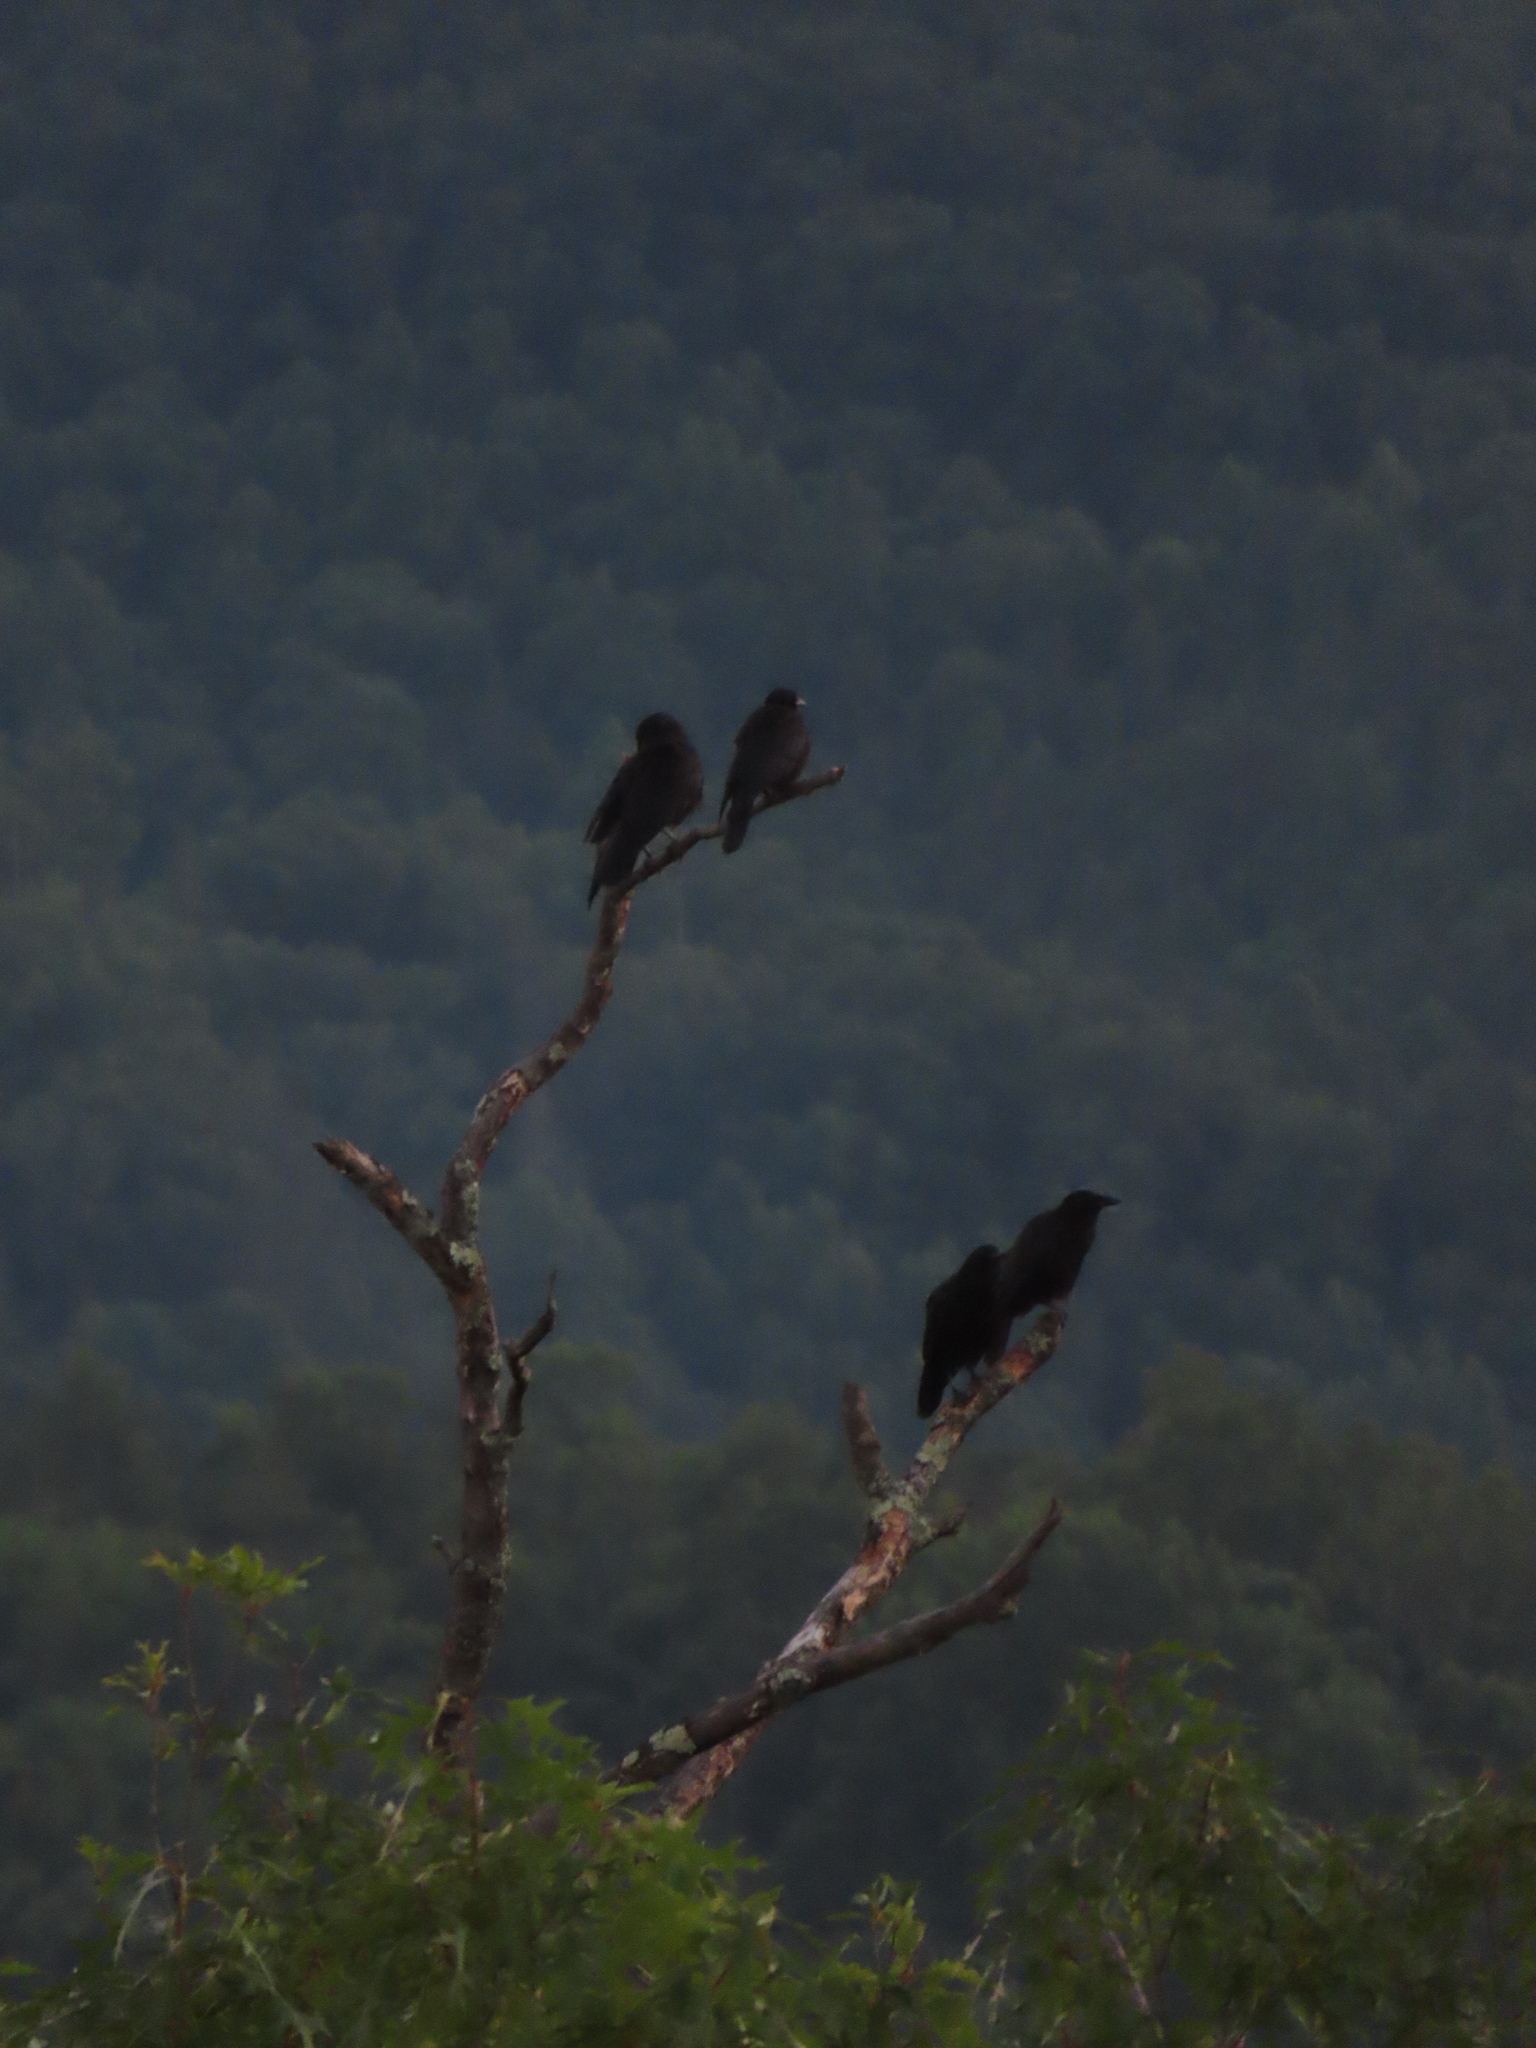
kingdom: Animalia
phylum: Chordata
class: Aves
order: Passeriformes
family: Corvidae
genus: Corvus
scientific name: Corvus brachyrhynchos
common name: American crow
